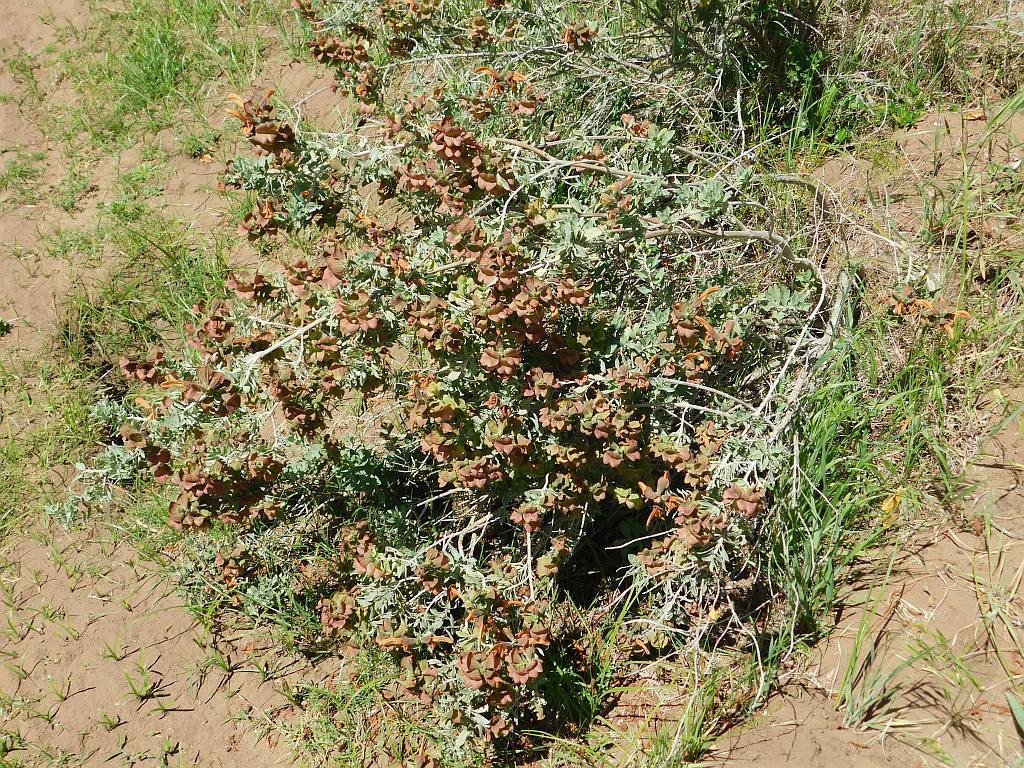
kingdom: Plantae
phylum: Tracheophyta
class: Magnoliopsida
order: Lamiales
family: Lamiaceae
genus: Salvia
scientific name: Salvia aurea
